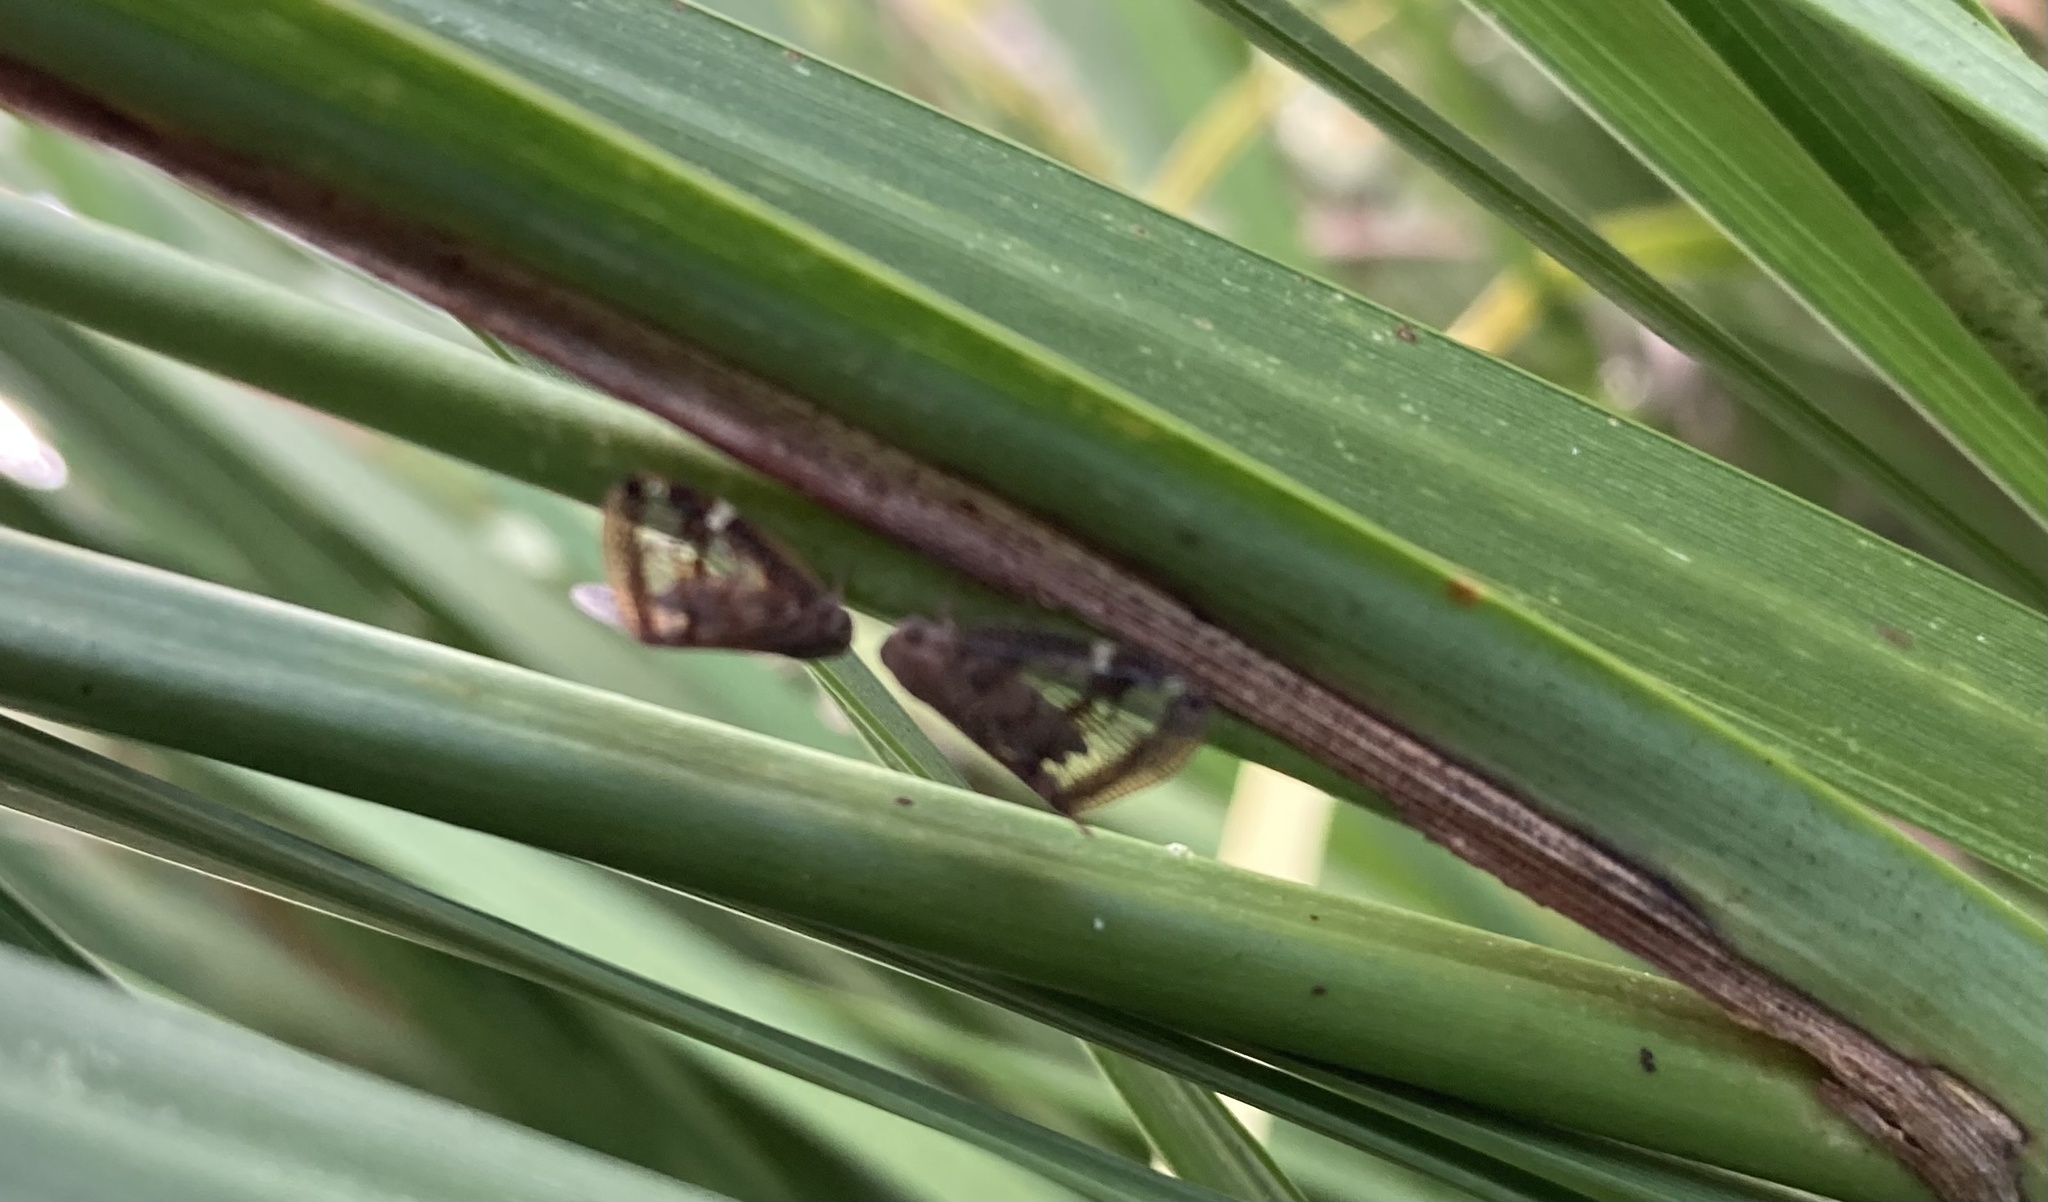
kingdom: Animalia
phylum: Arthropoda
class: Insecta
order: Hemiptera
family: Ricaniidae
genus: Scolypopa
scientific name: Scolypopa australis
